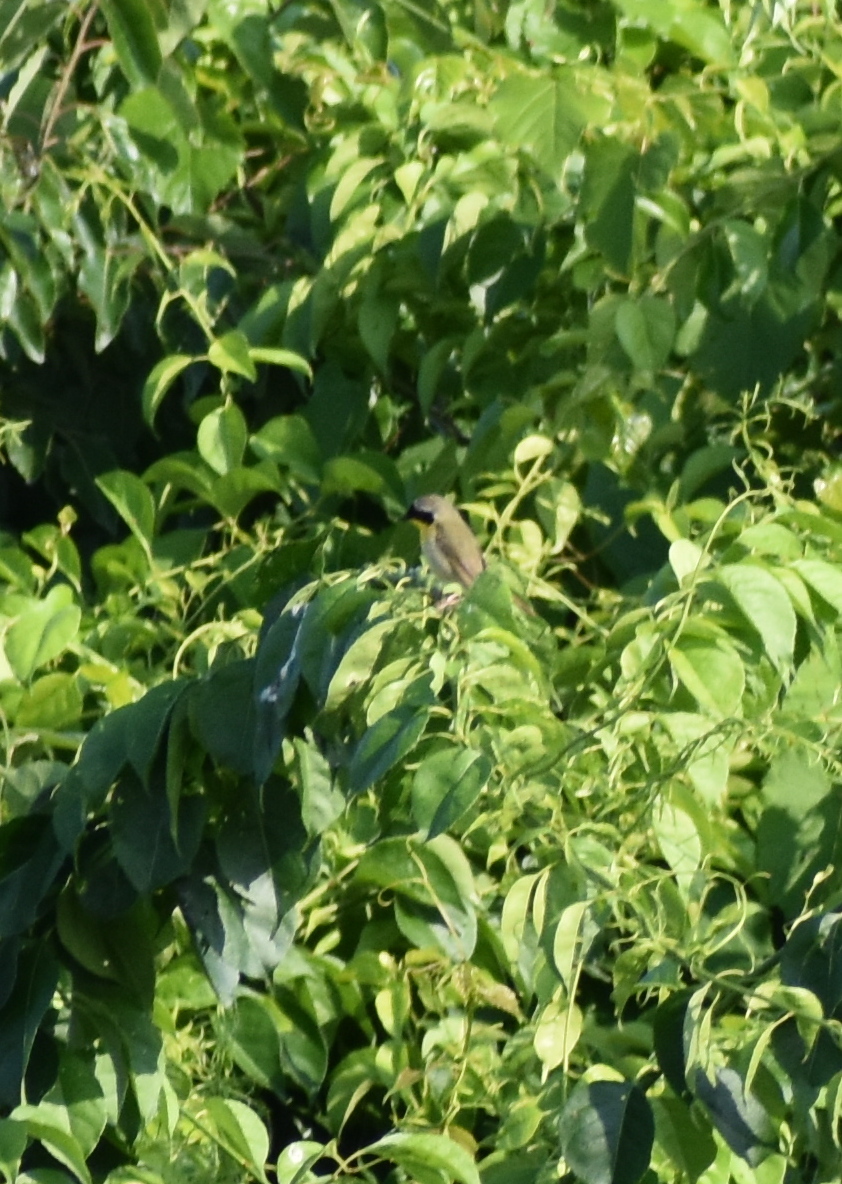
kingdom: Animalia
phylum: Chordata
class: Aves
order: Passeriformes
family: Parulidae
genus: Geothlypis
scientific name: Geothlypis trichas
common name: Common yellowthroat
